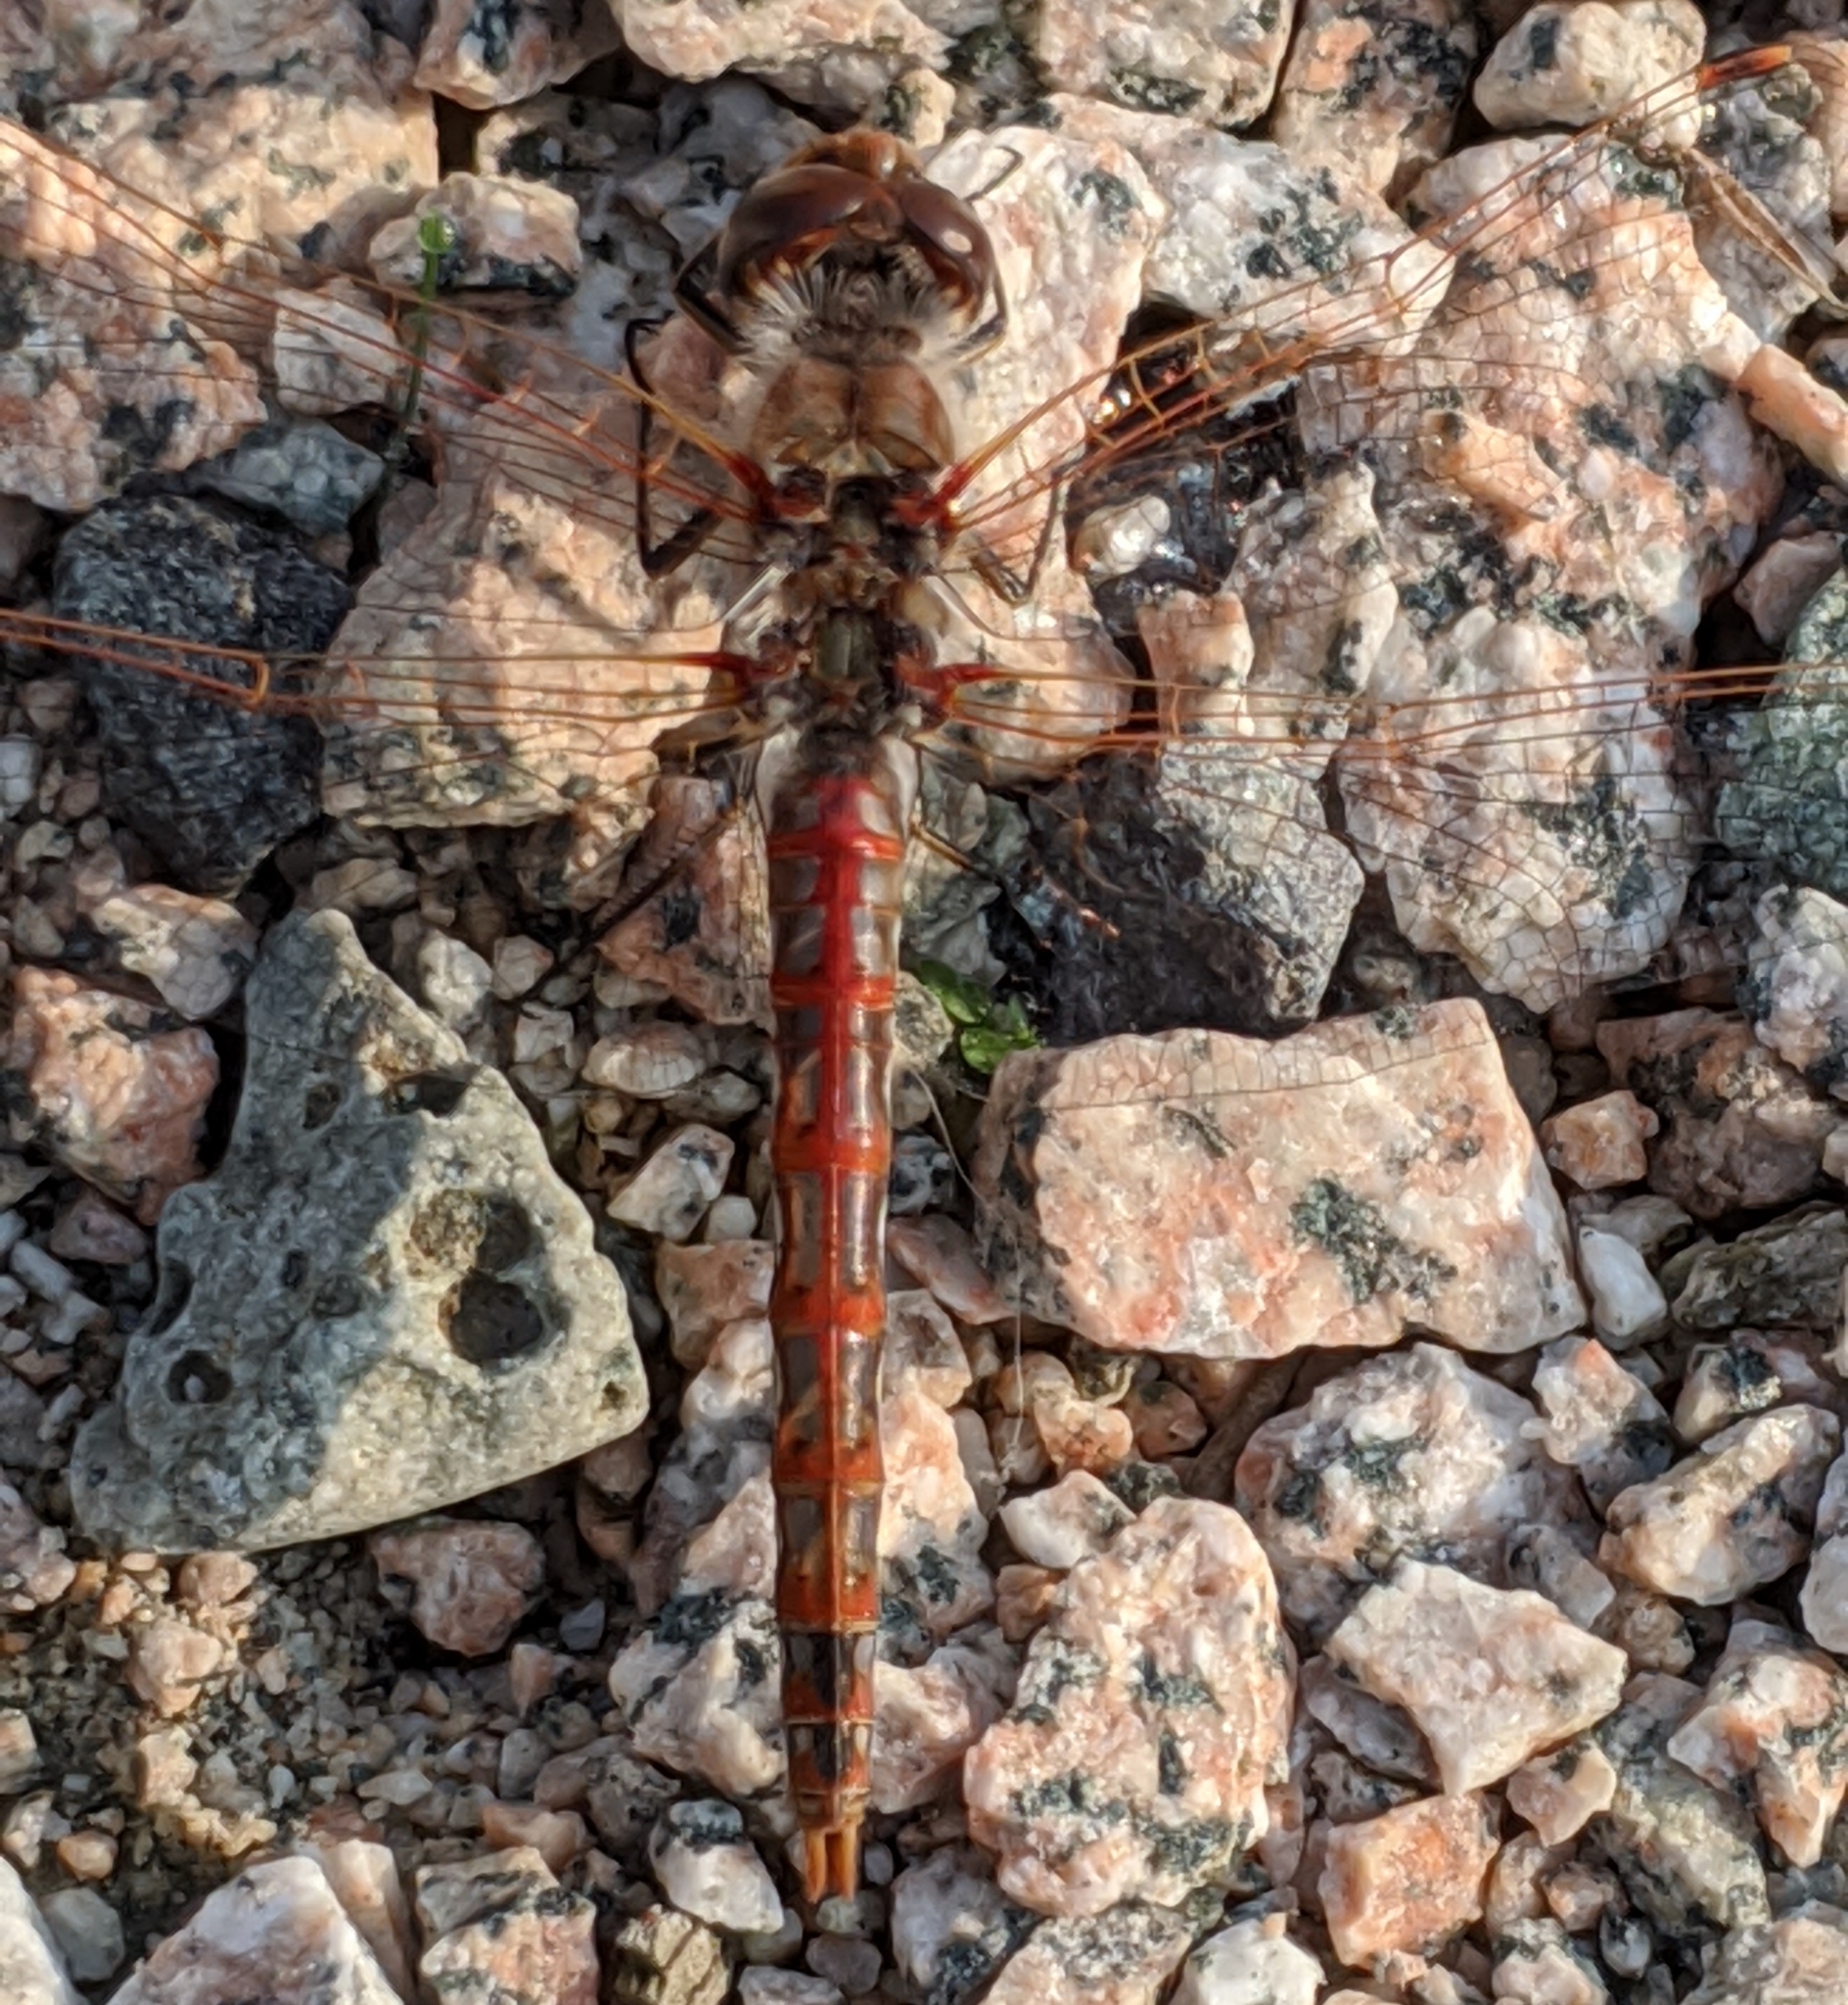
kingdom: Animalia
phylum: Arthropoda
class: Insecta
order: Odonata
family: Libellulidae
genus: Sympetrum
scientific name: Sympetrum corruptum
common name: Variegated meadowhawk
